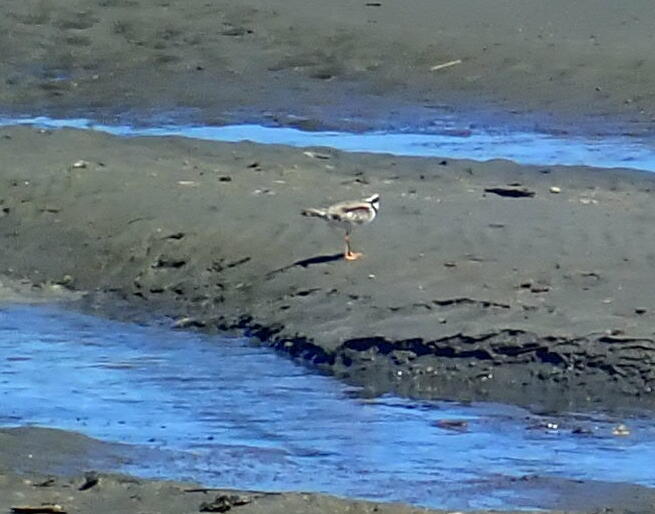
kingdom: Animalia
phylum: Chordata
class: Aves
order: Charadriiformes
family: Charadriidae
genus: Elseyornis
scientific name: Elseyornis melanops
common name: Black-fronted dotterel
